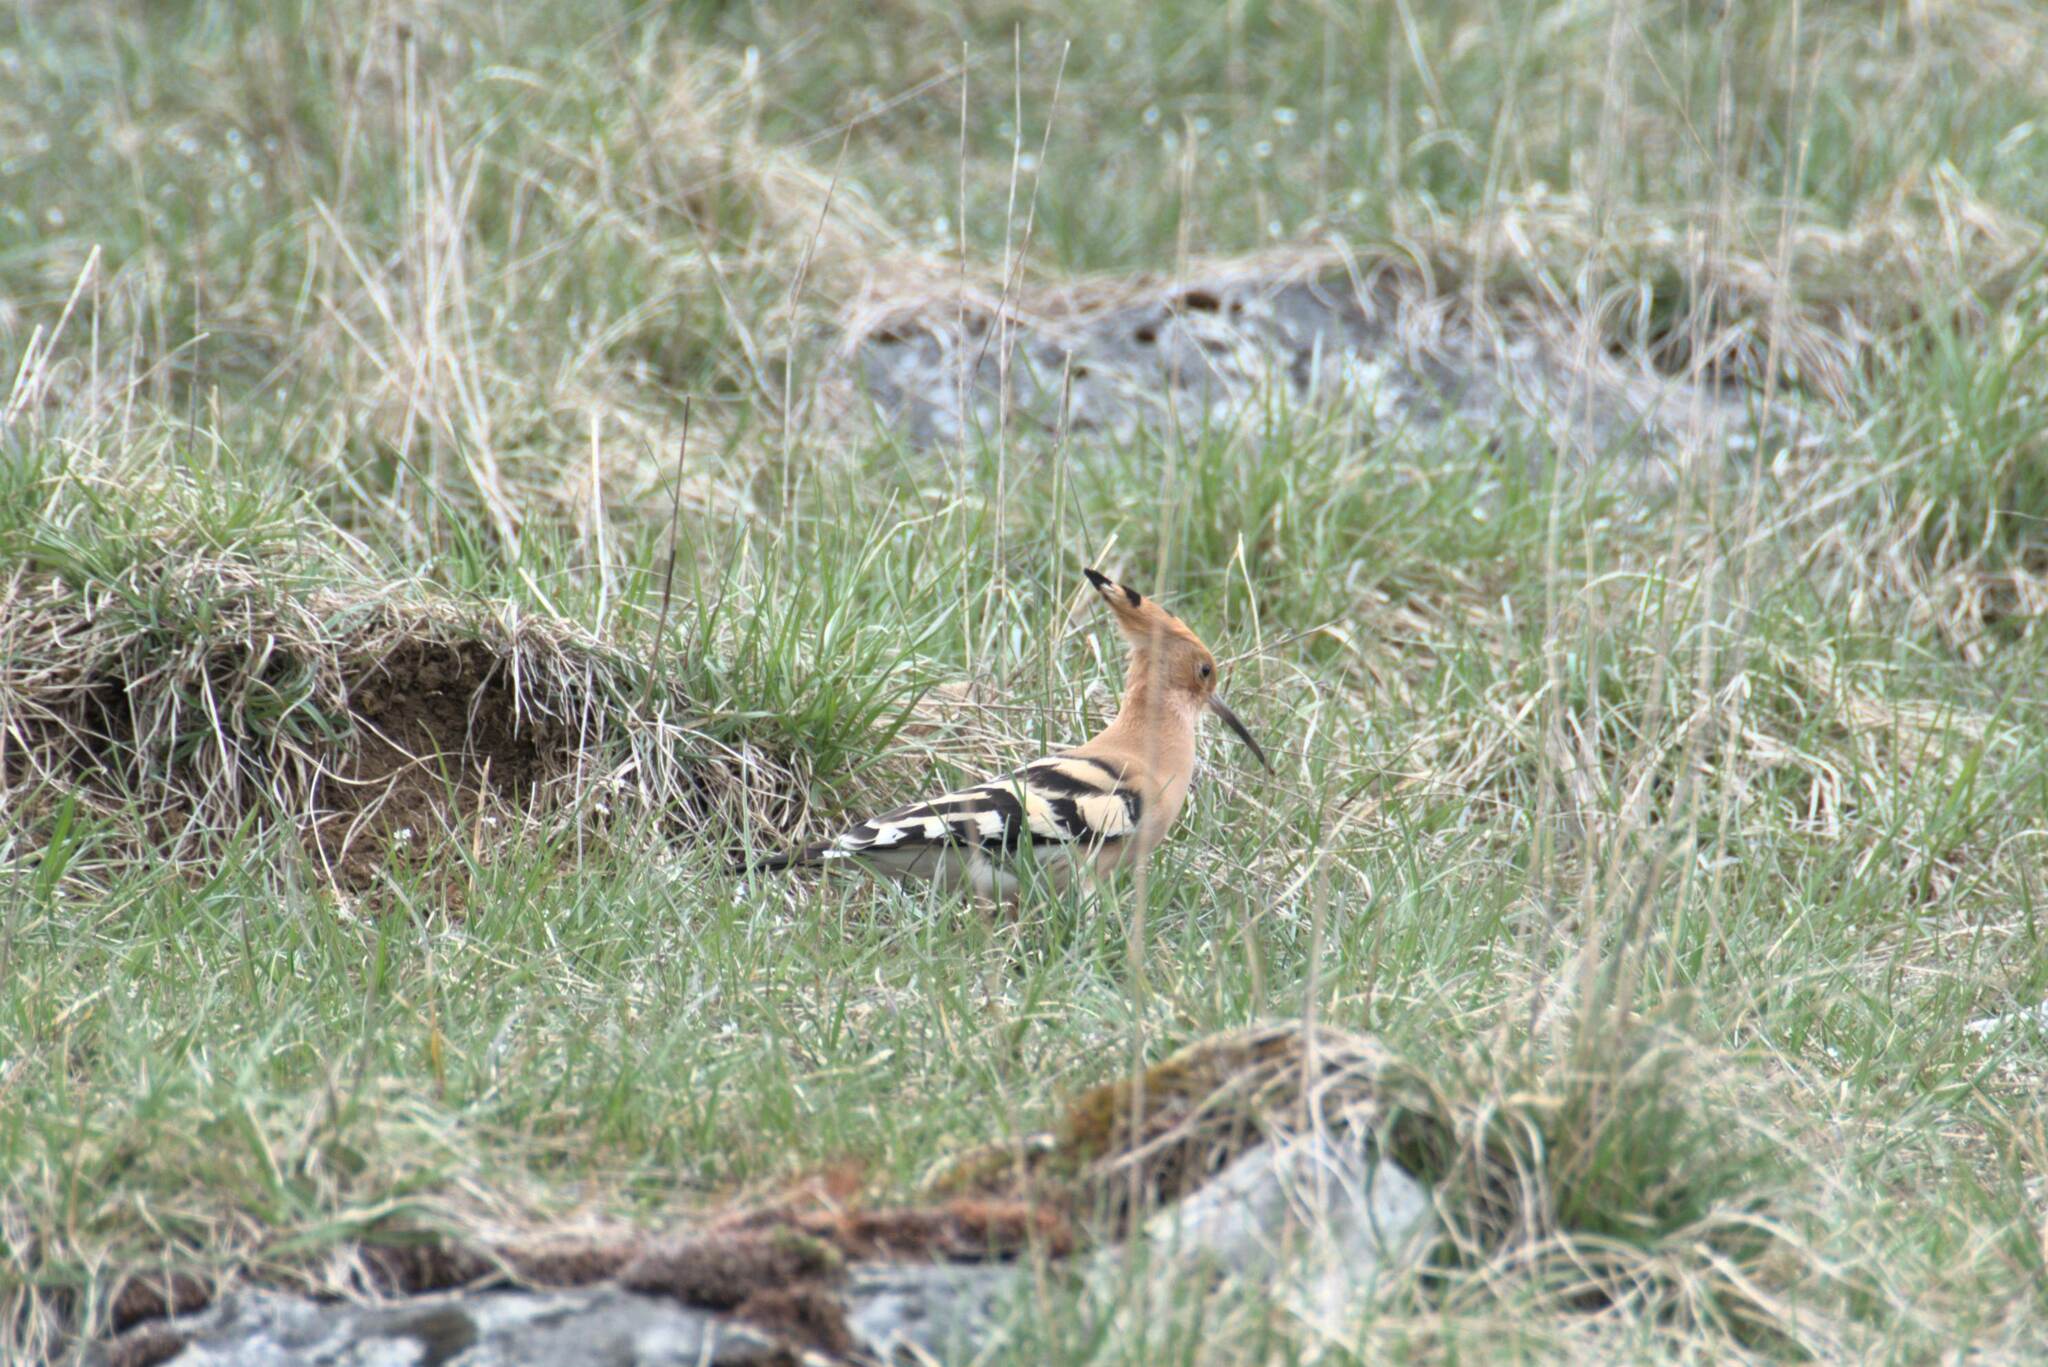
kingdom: Animalia
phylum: Chordata
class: Aves
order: Bucerotiformes
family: Upupidae
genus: Upupa
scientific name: Upupa epops
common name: Eurasian hoopoe
